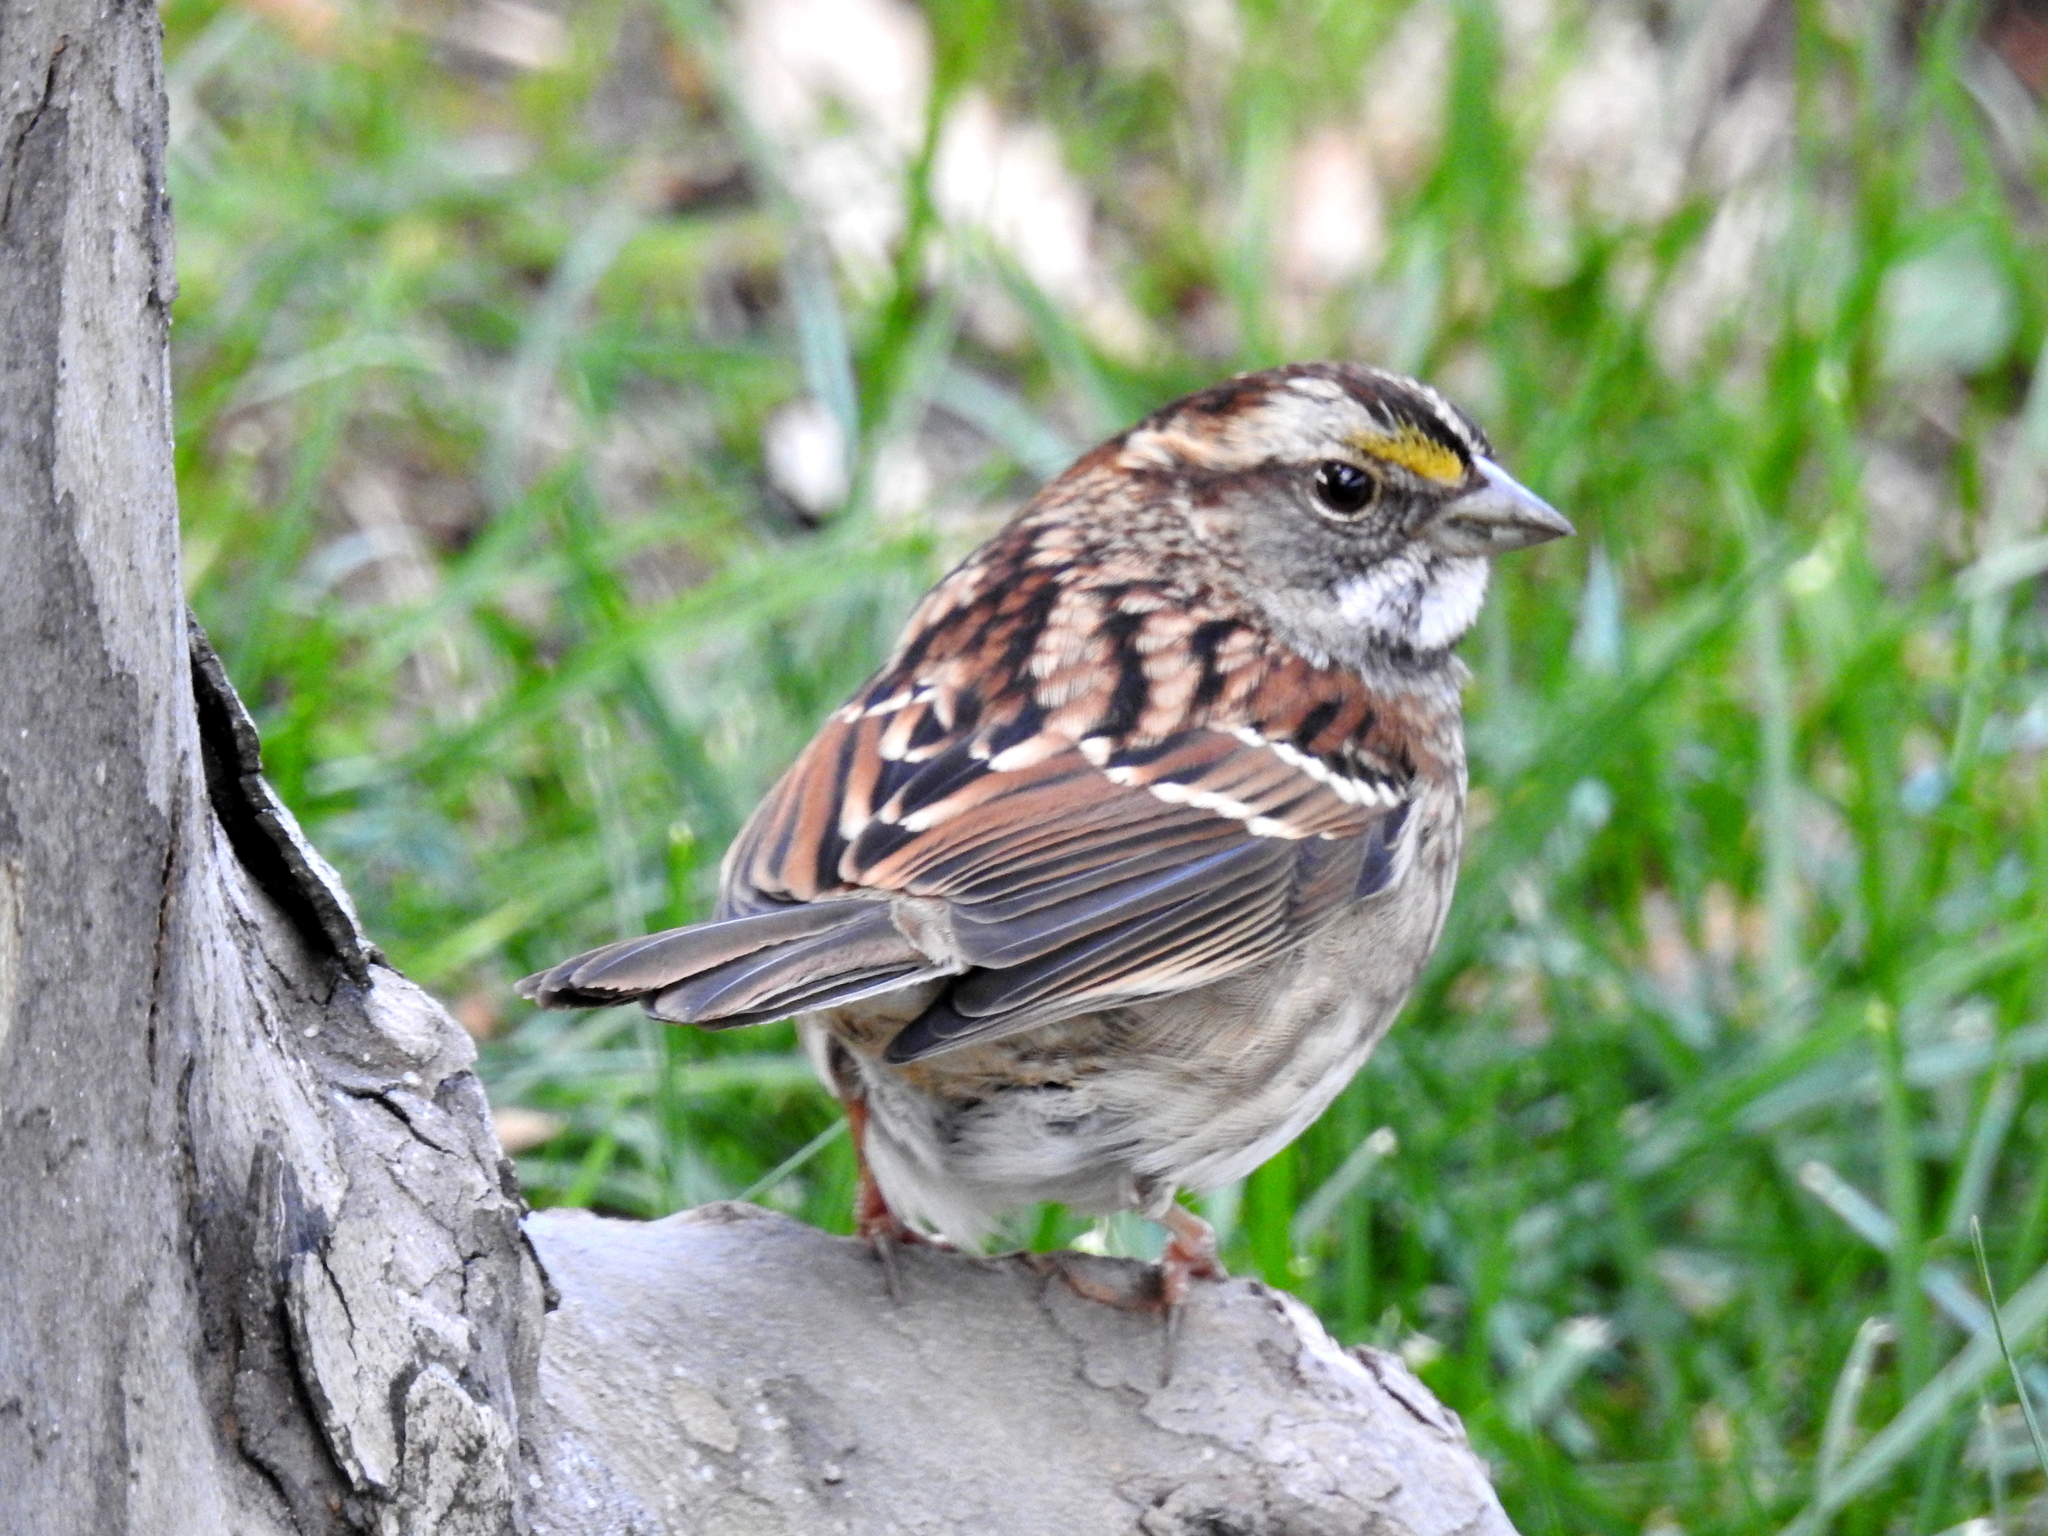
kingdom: Animalia
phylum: Chordata
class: Aves
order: Passeriformes
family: Passerellidae
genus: Zonotrichia
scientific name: Zonotrichia albicollis
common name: White-throated sparrow
